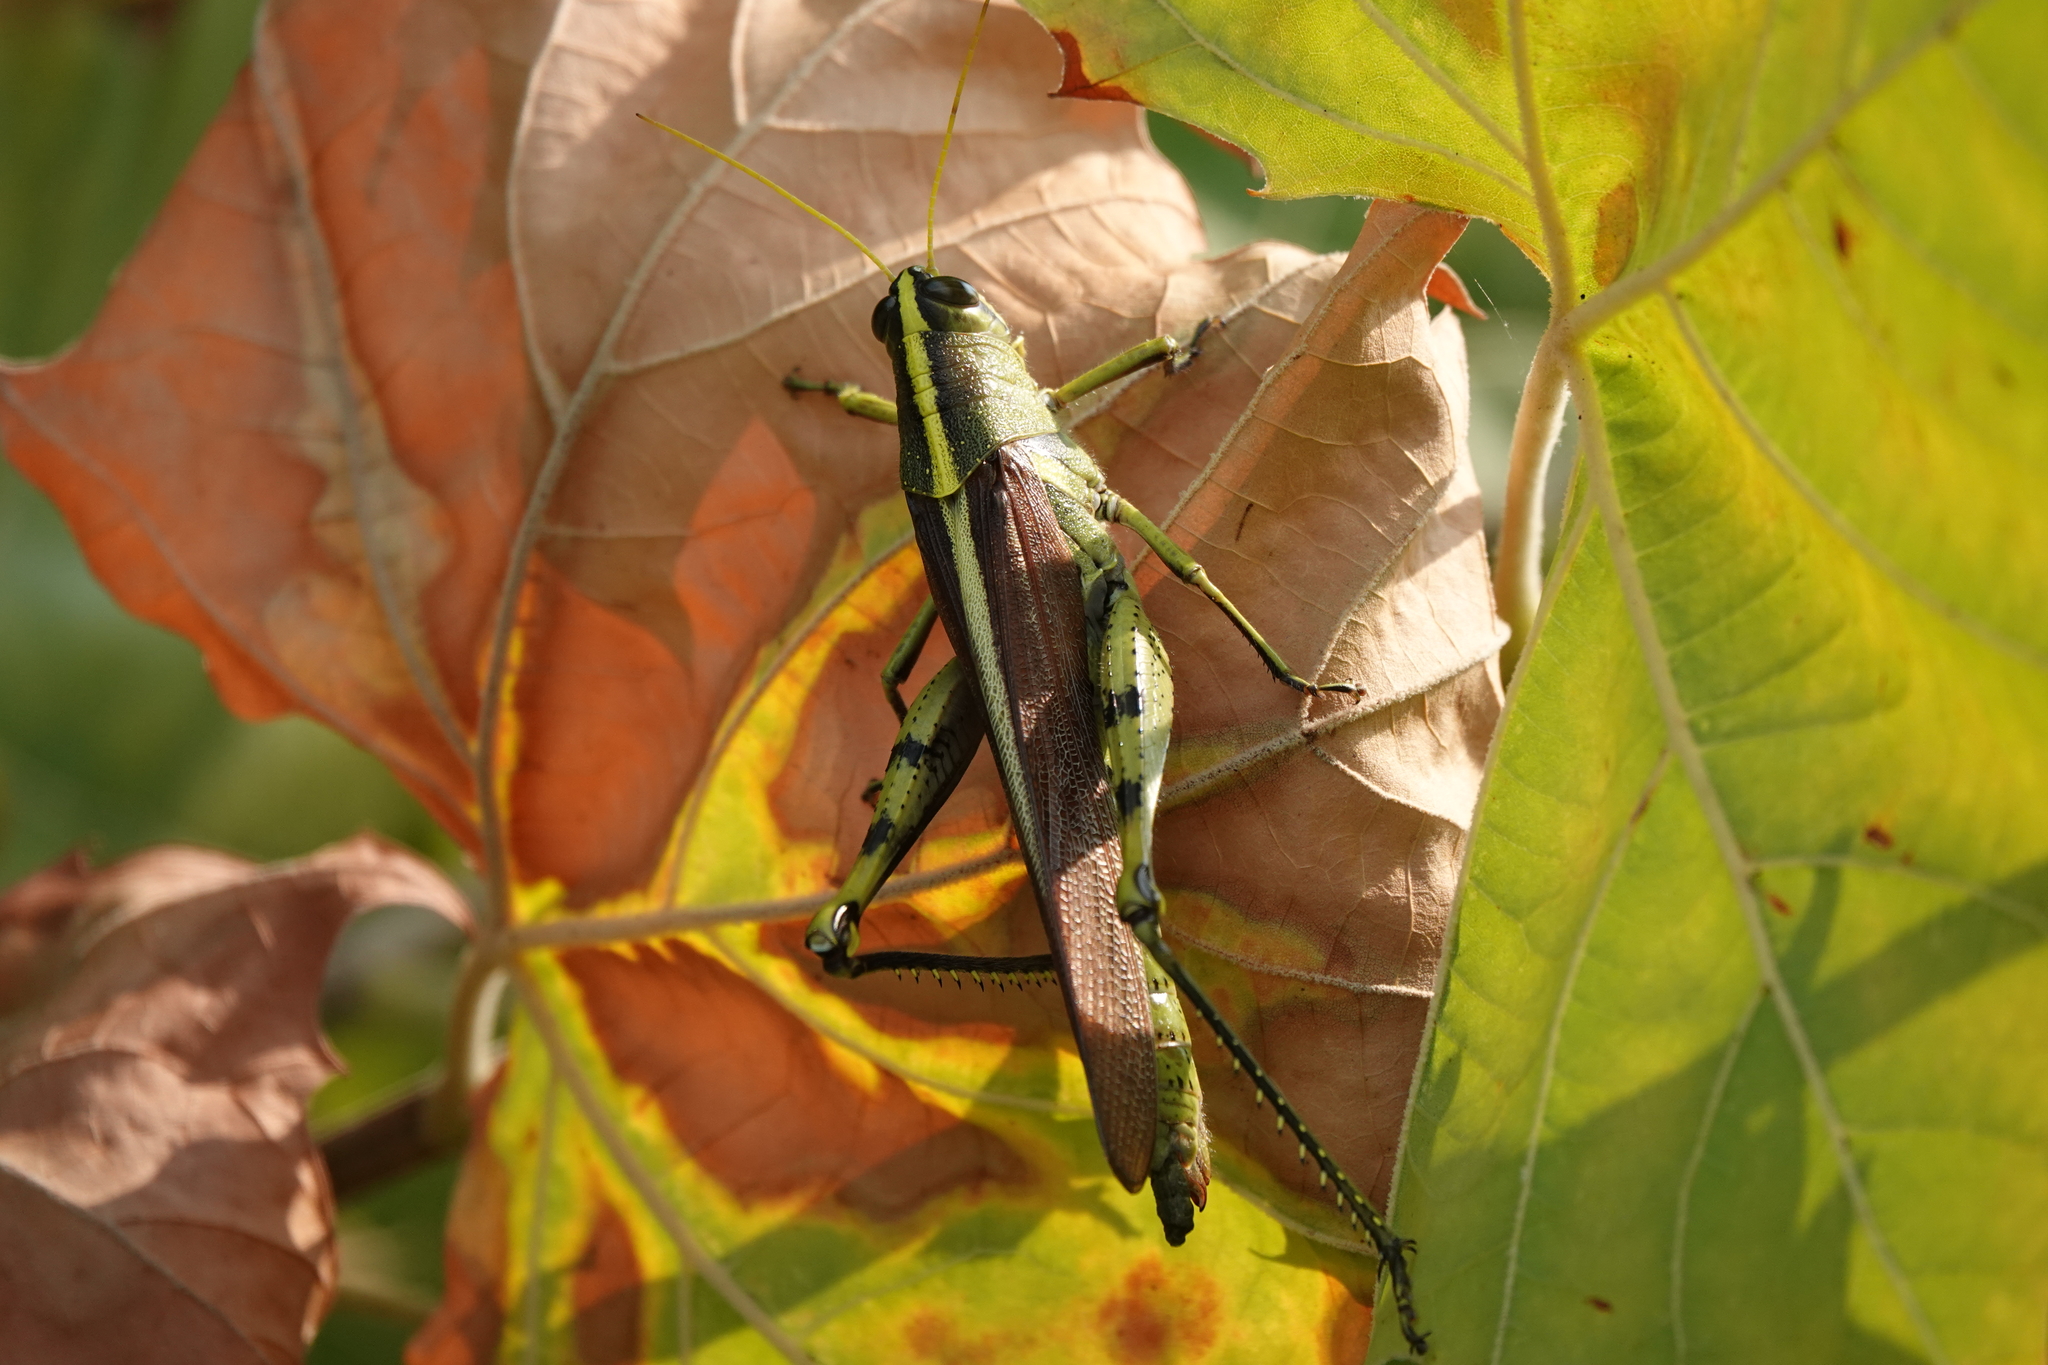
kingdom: Animalia
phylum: Arthropoda
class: Insecta
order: Orthoptera
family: Acrididae
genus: Schistocerca
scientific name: Schistocerca obscura
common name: Obscure bird grasshopper
